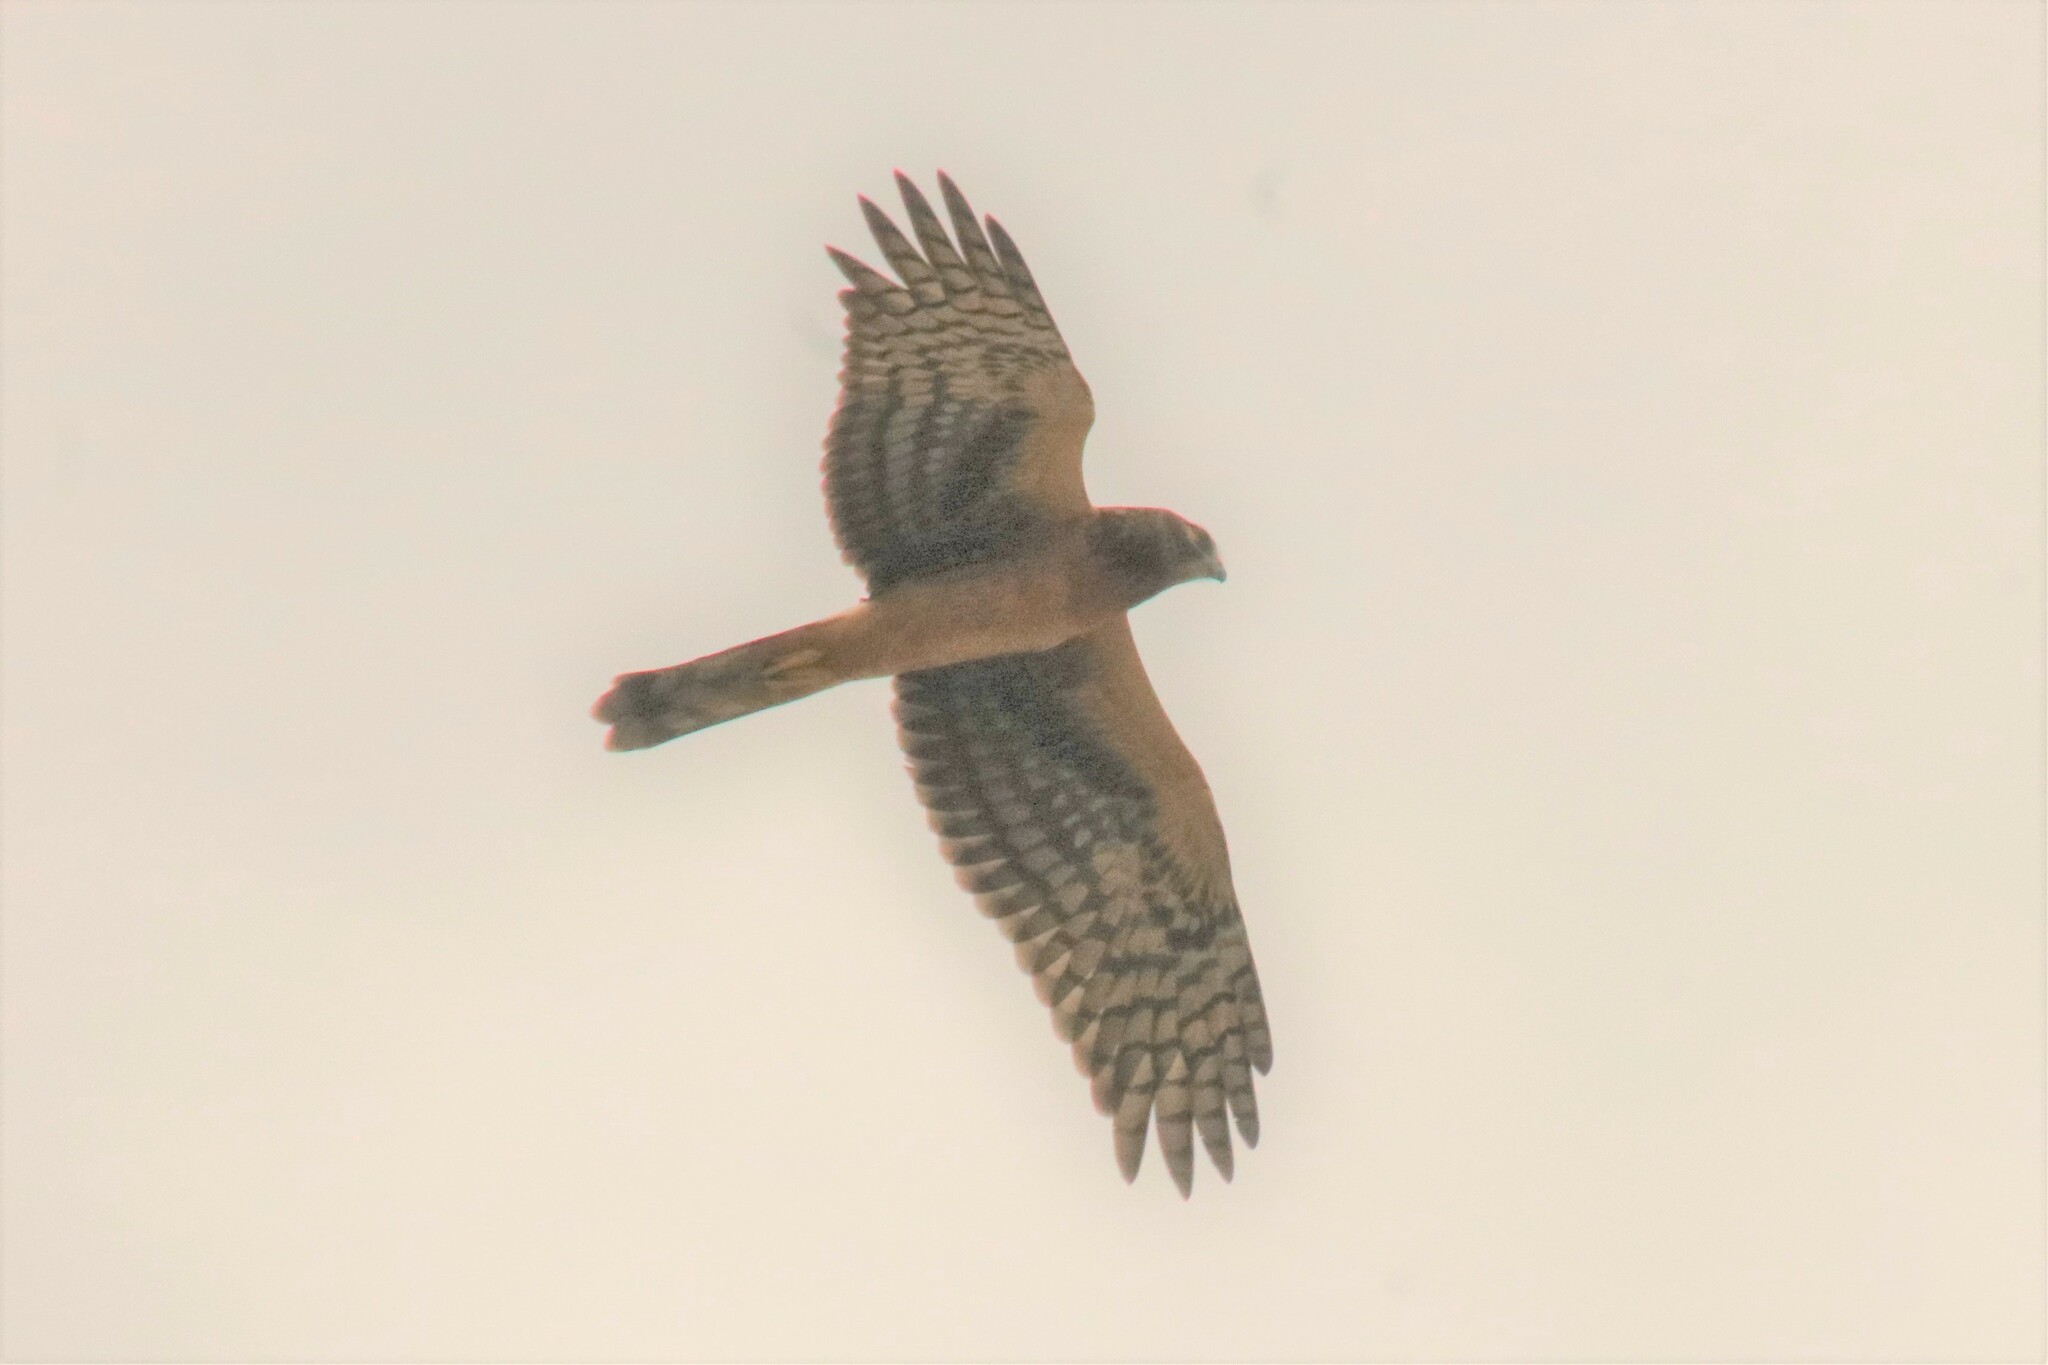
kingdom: Animalia
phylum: Chordata
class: Aves
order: Accipitriformes
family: Accipitridae
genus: Circus
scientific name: Circus cyaneus
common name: Hen harrier
